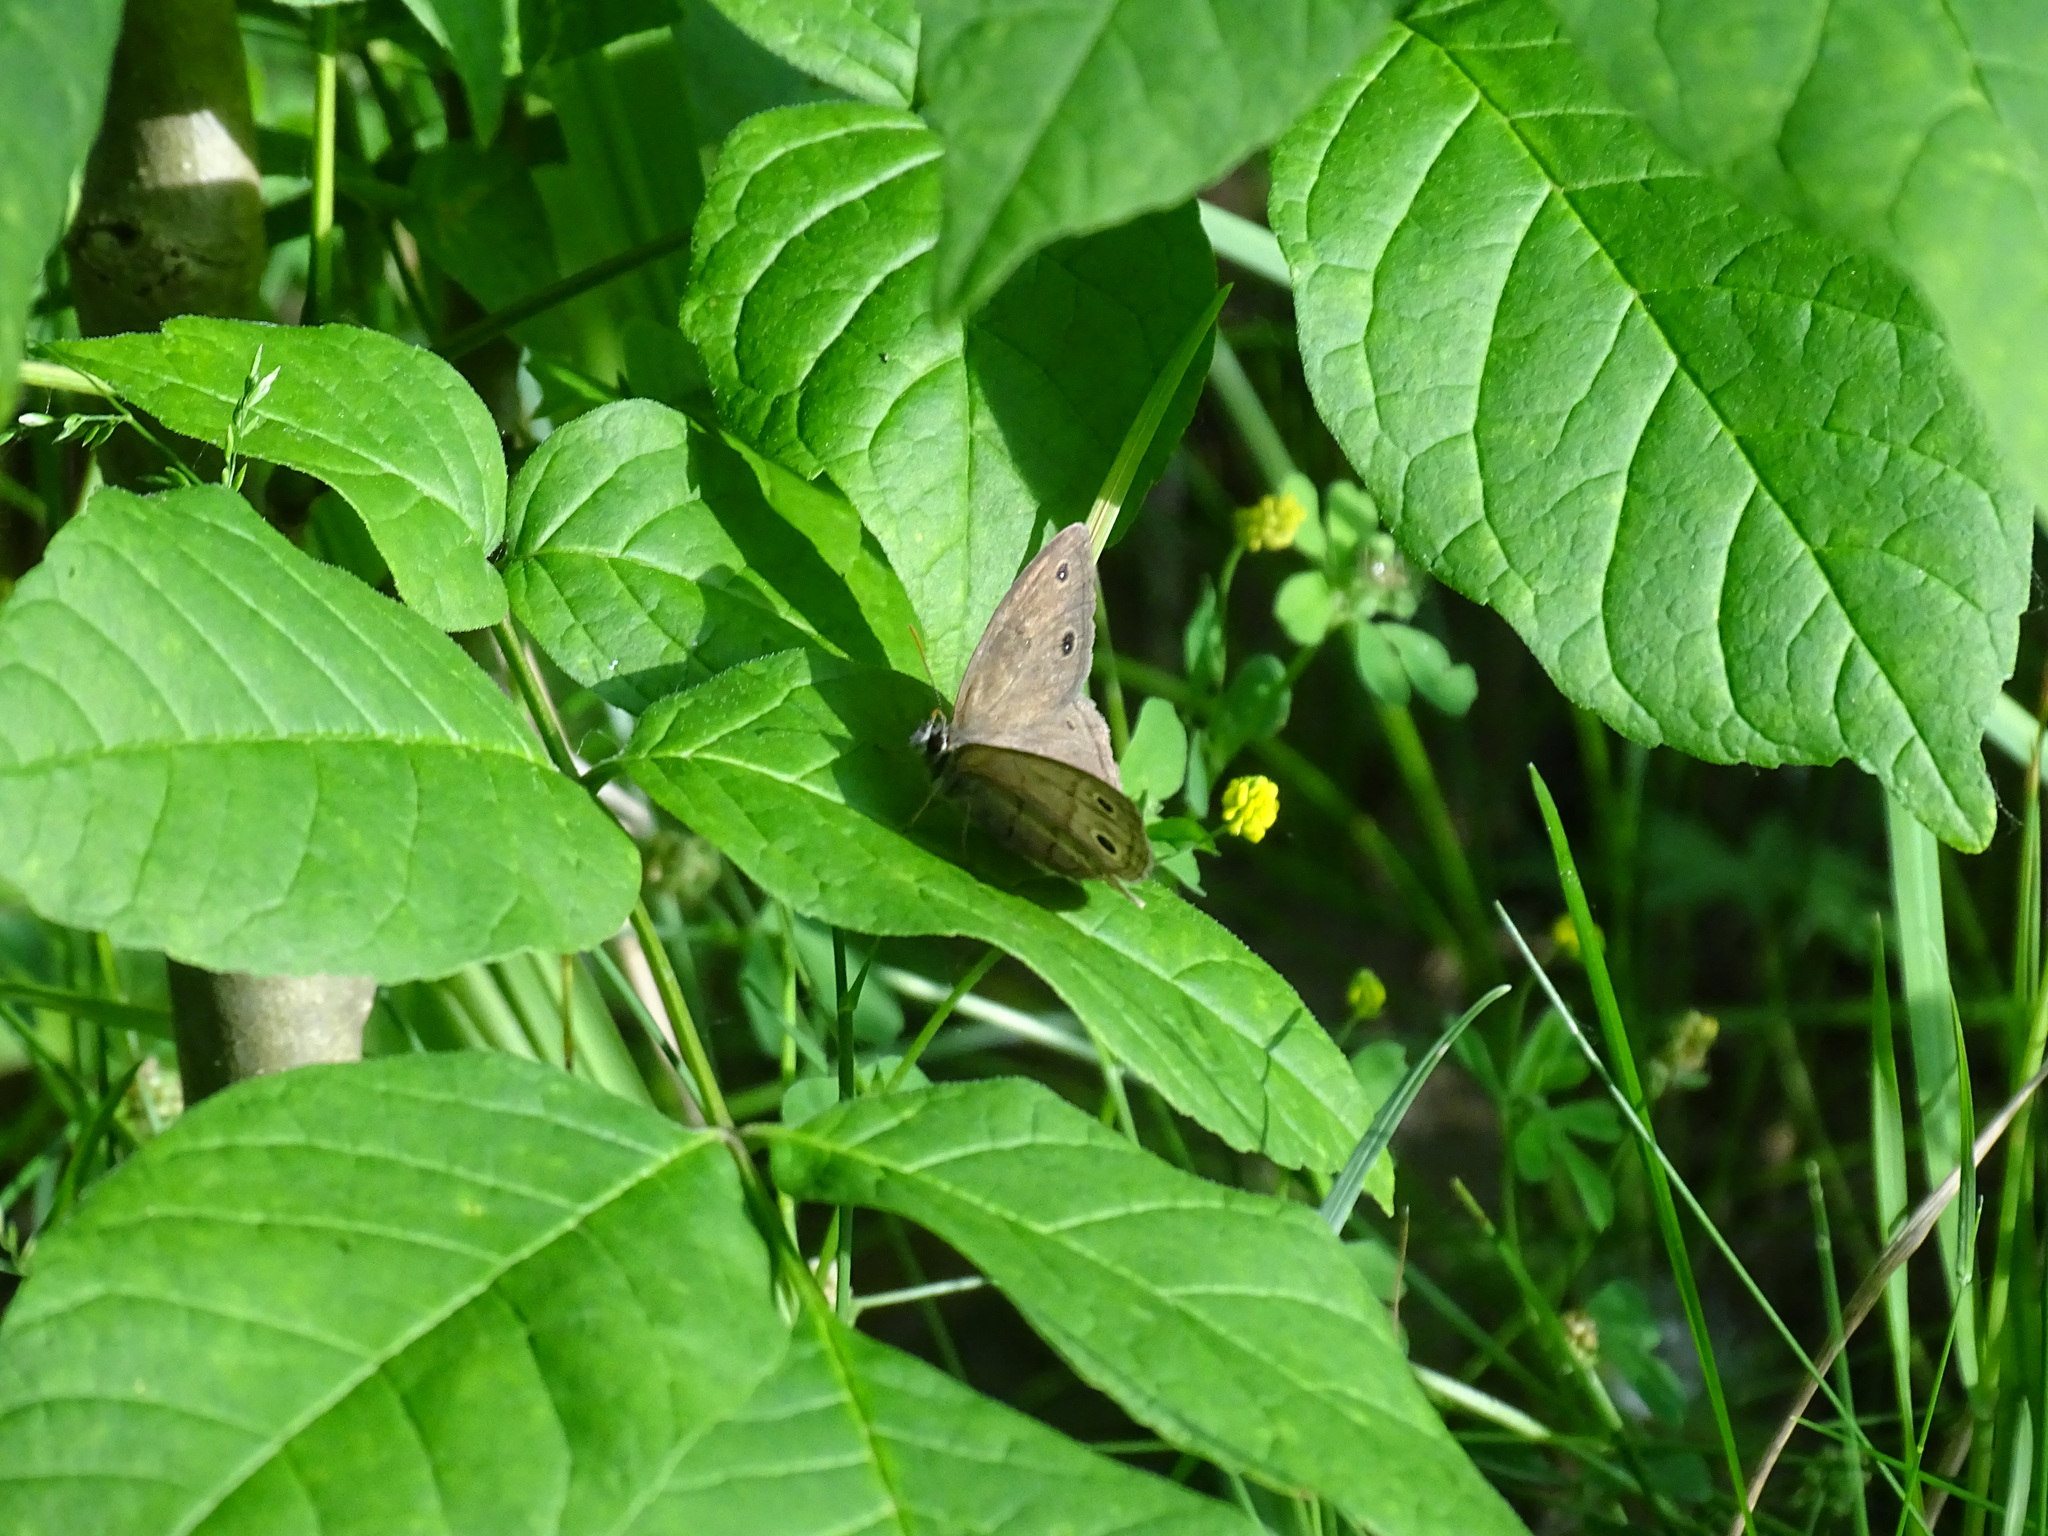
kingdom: Animalia
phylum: Arthropoda
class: Insecta
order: Lepidoptera
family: Nymphalidae
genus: Euptychia
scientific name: Euptychia cymela
